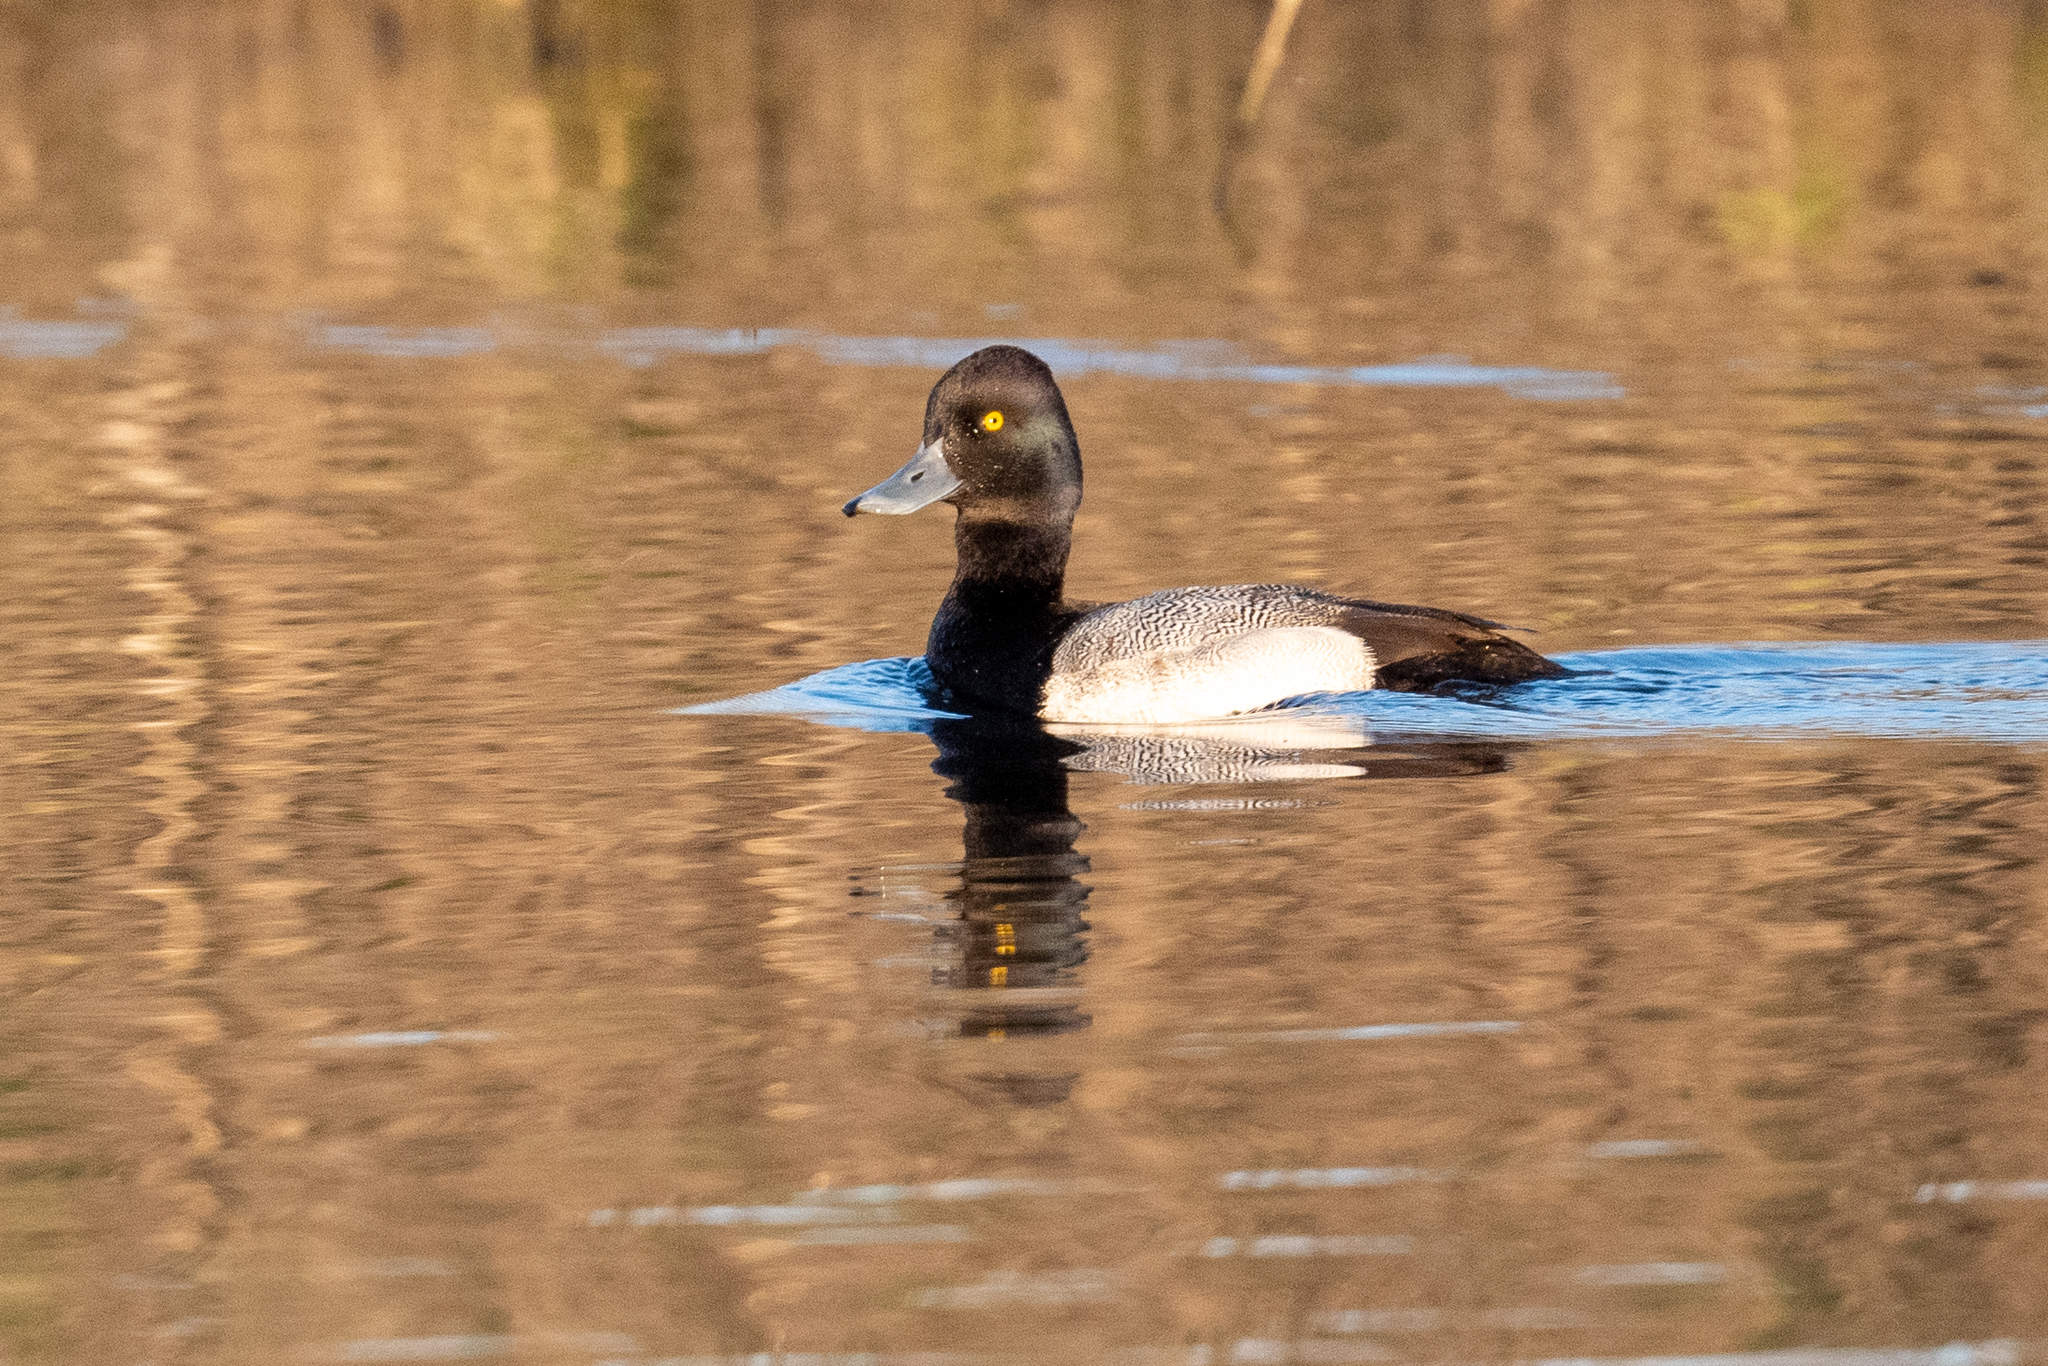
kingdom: Animalia
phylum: Chordata
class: Aves
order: Anseriformes
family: Anatidae
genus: Aythya
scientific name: Aythya affinis
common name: Lesser scaup
